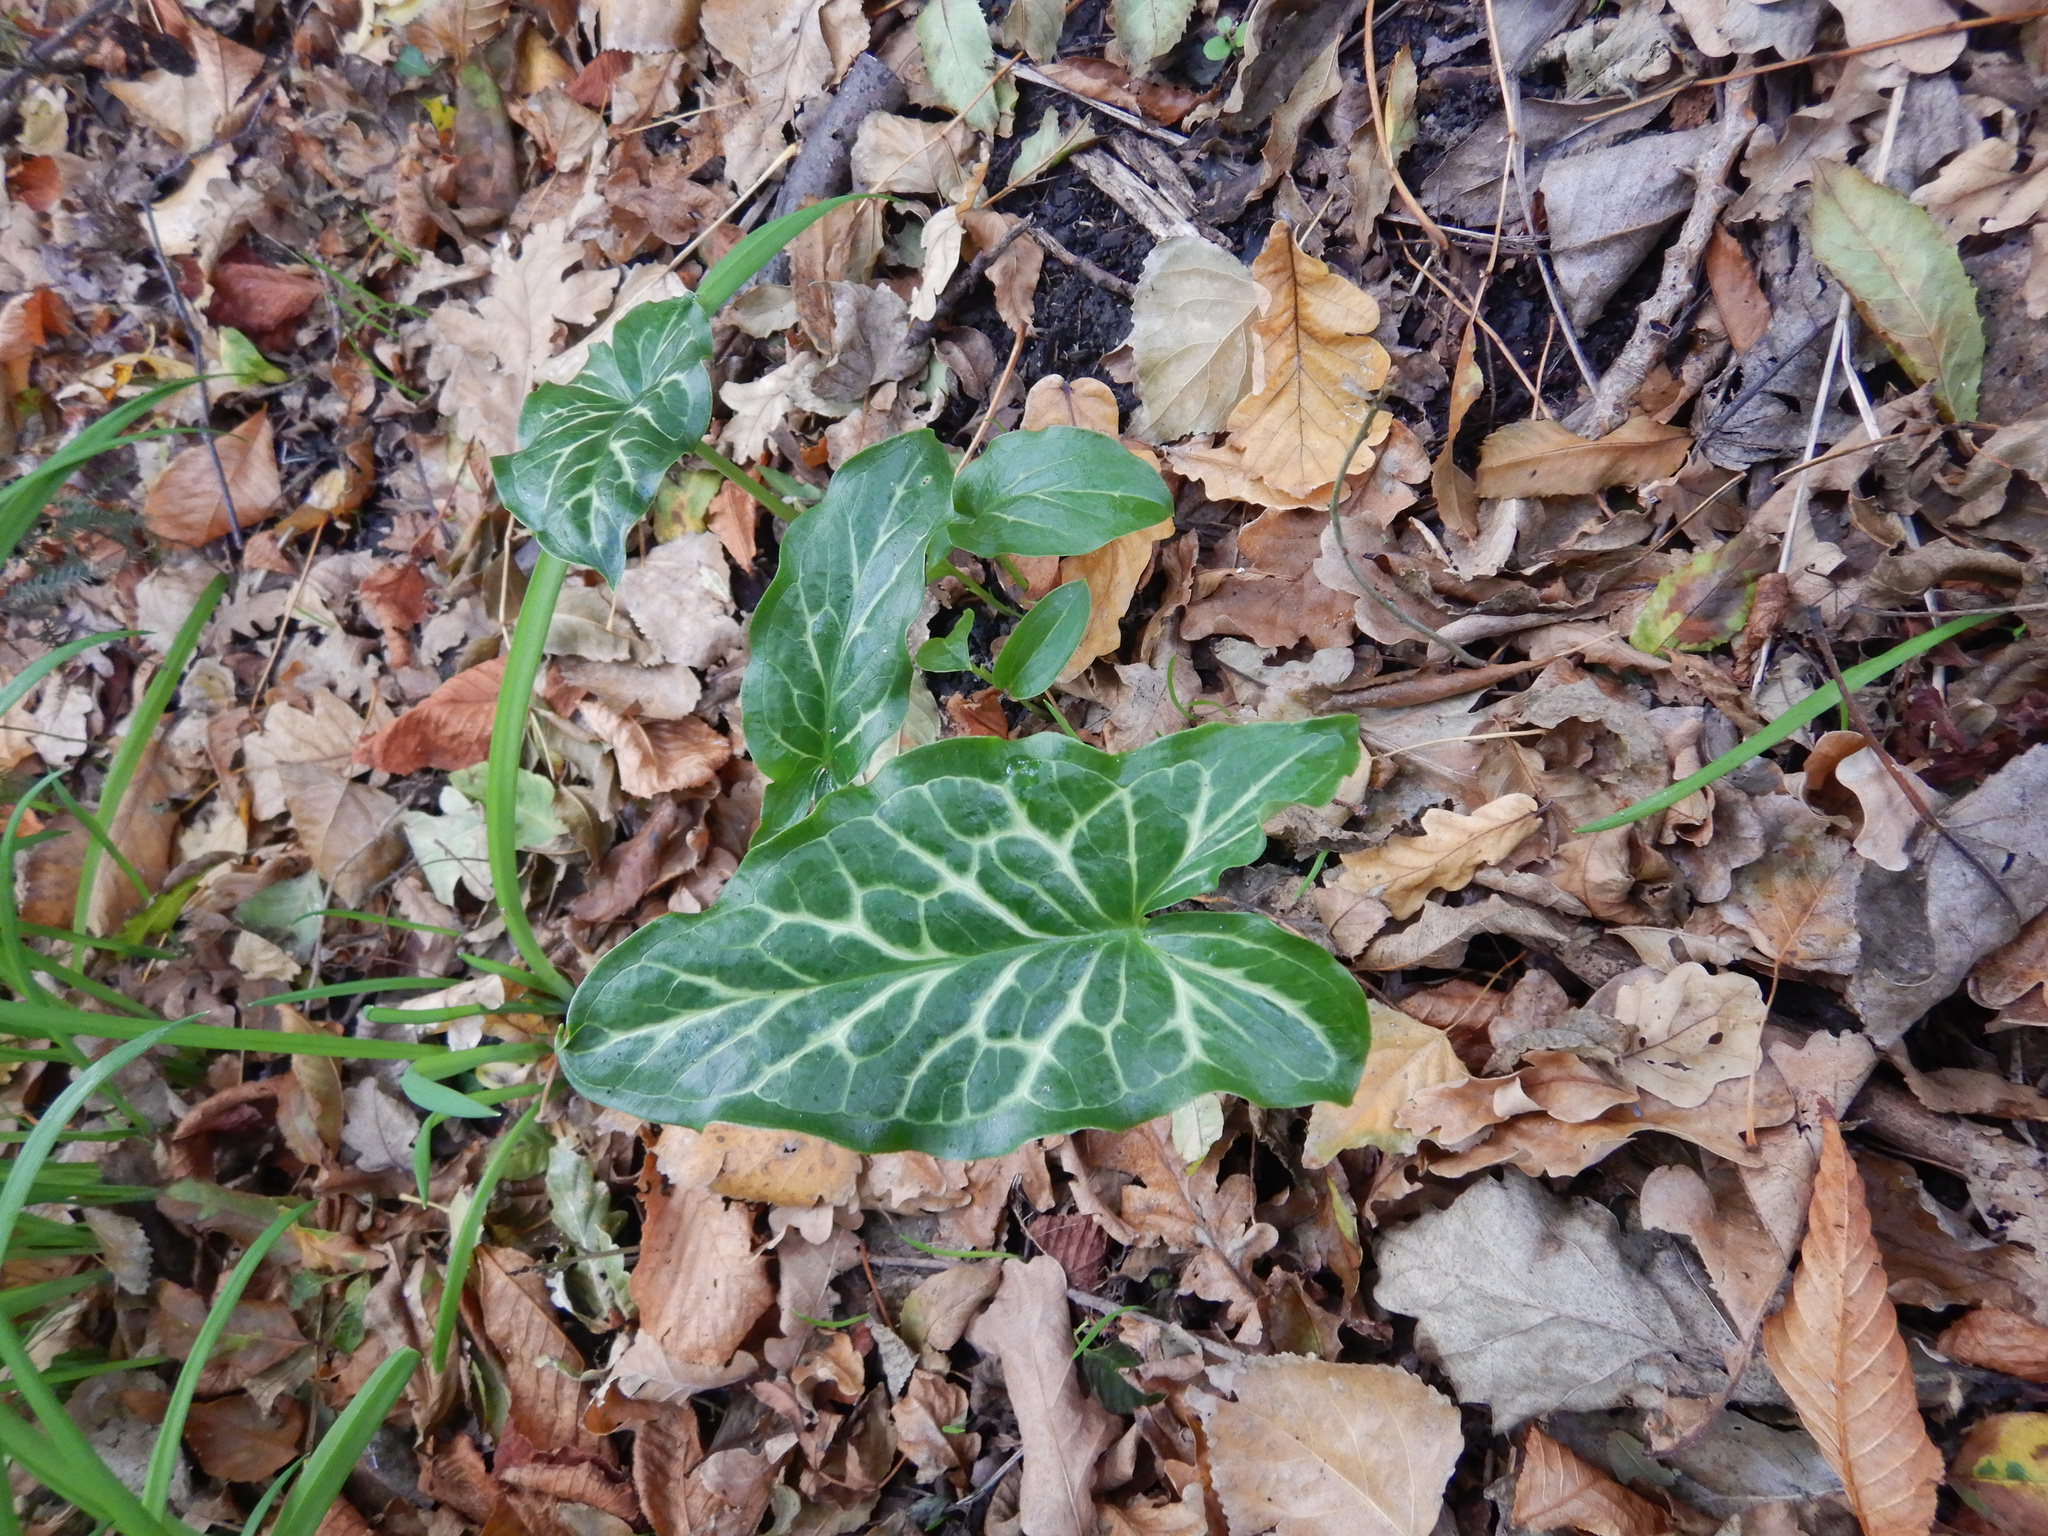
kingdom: Plantae
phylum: Tracheophyta
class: Liliopsida
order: Alismatales
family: Araceae
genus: Arum
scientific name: Arum italicum
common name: Italian lords-and-ladies
